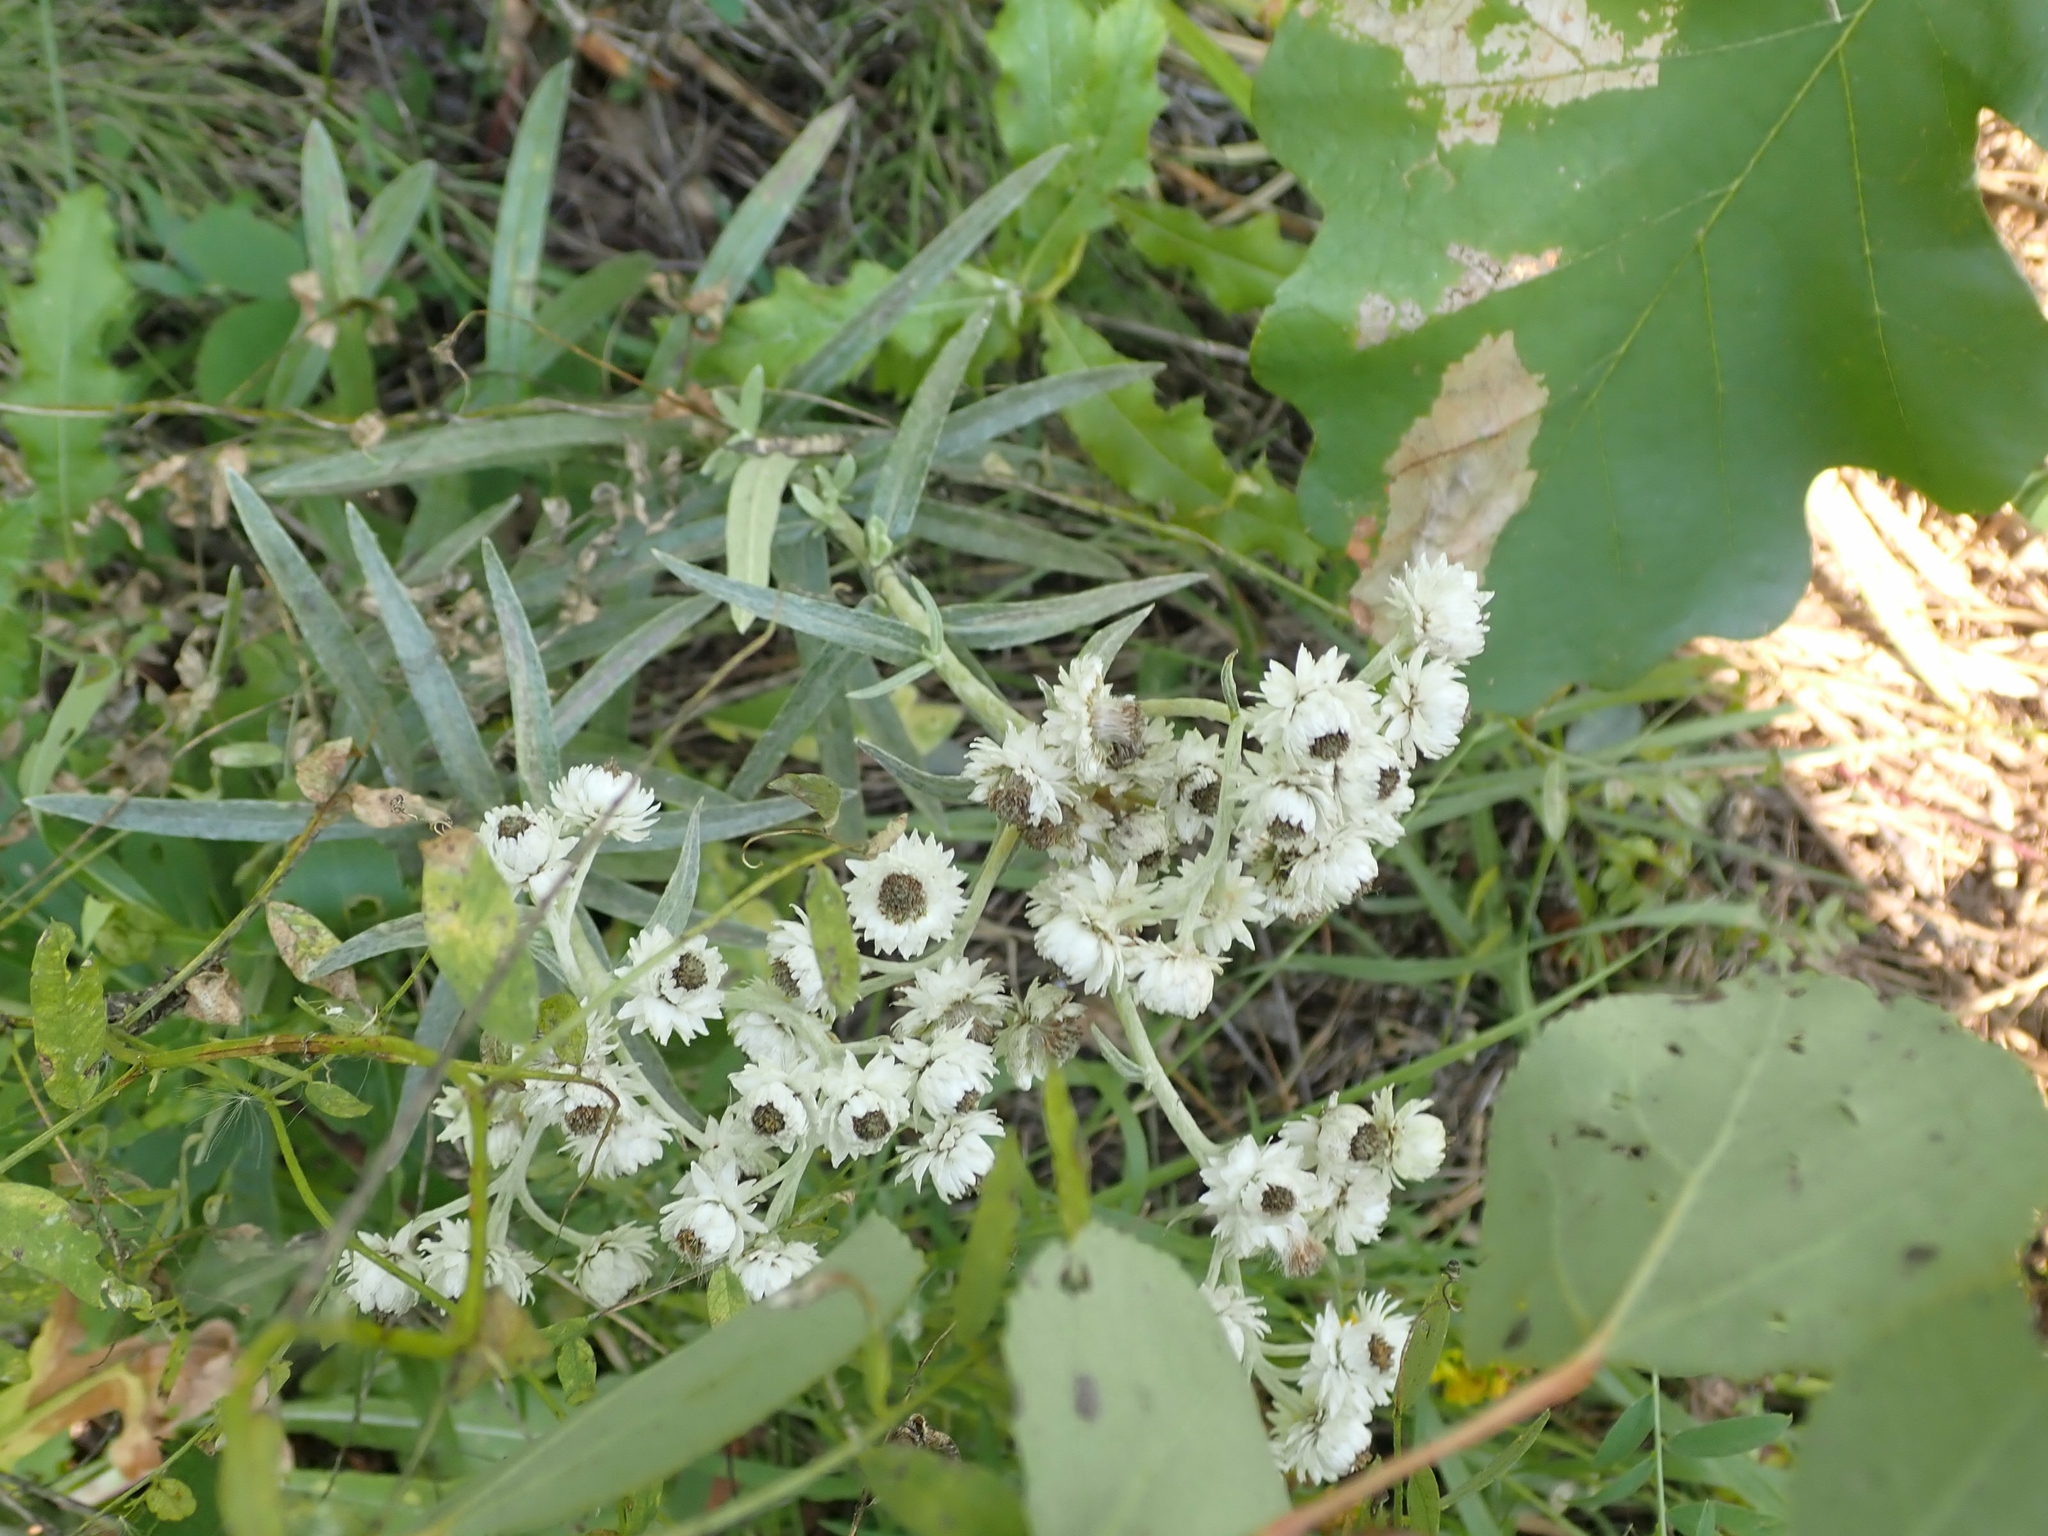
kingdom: Plantae
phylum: Tracheophyta
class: Magnoliopsida
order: Asterales
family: Asteraceae
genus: Anaphalis
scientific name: Anaphalis margaritacea
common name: Pearly everlasting
